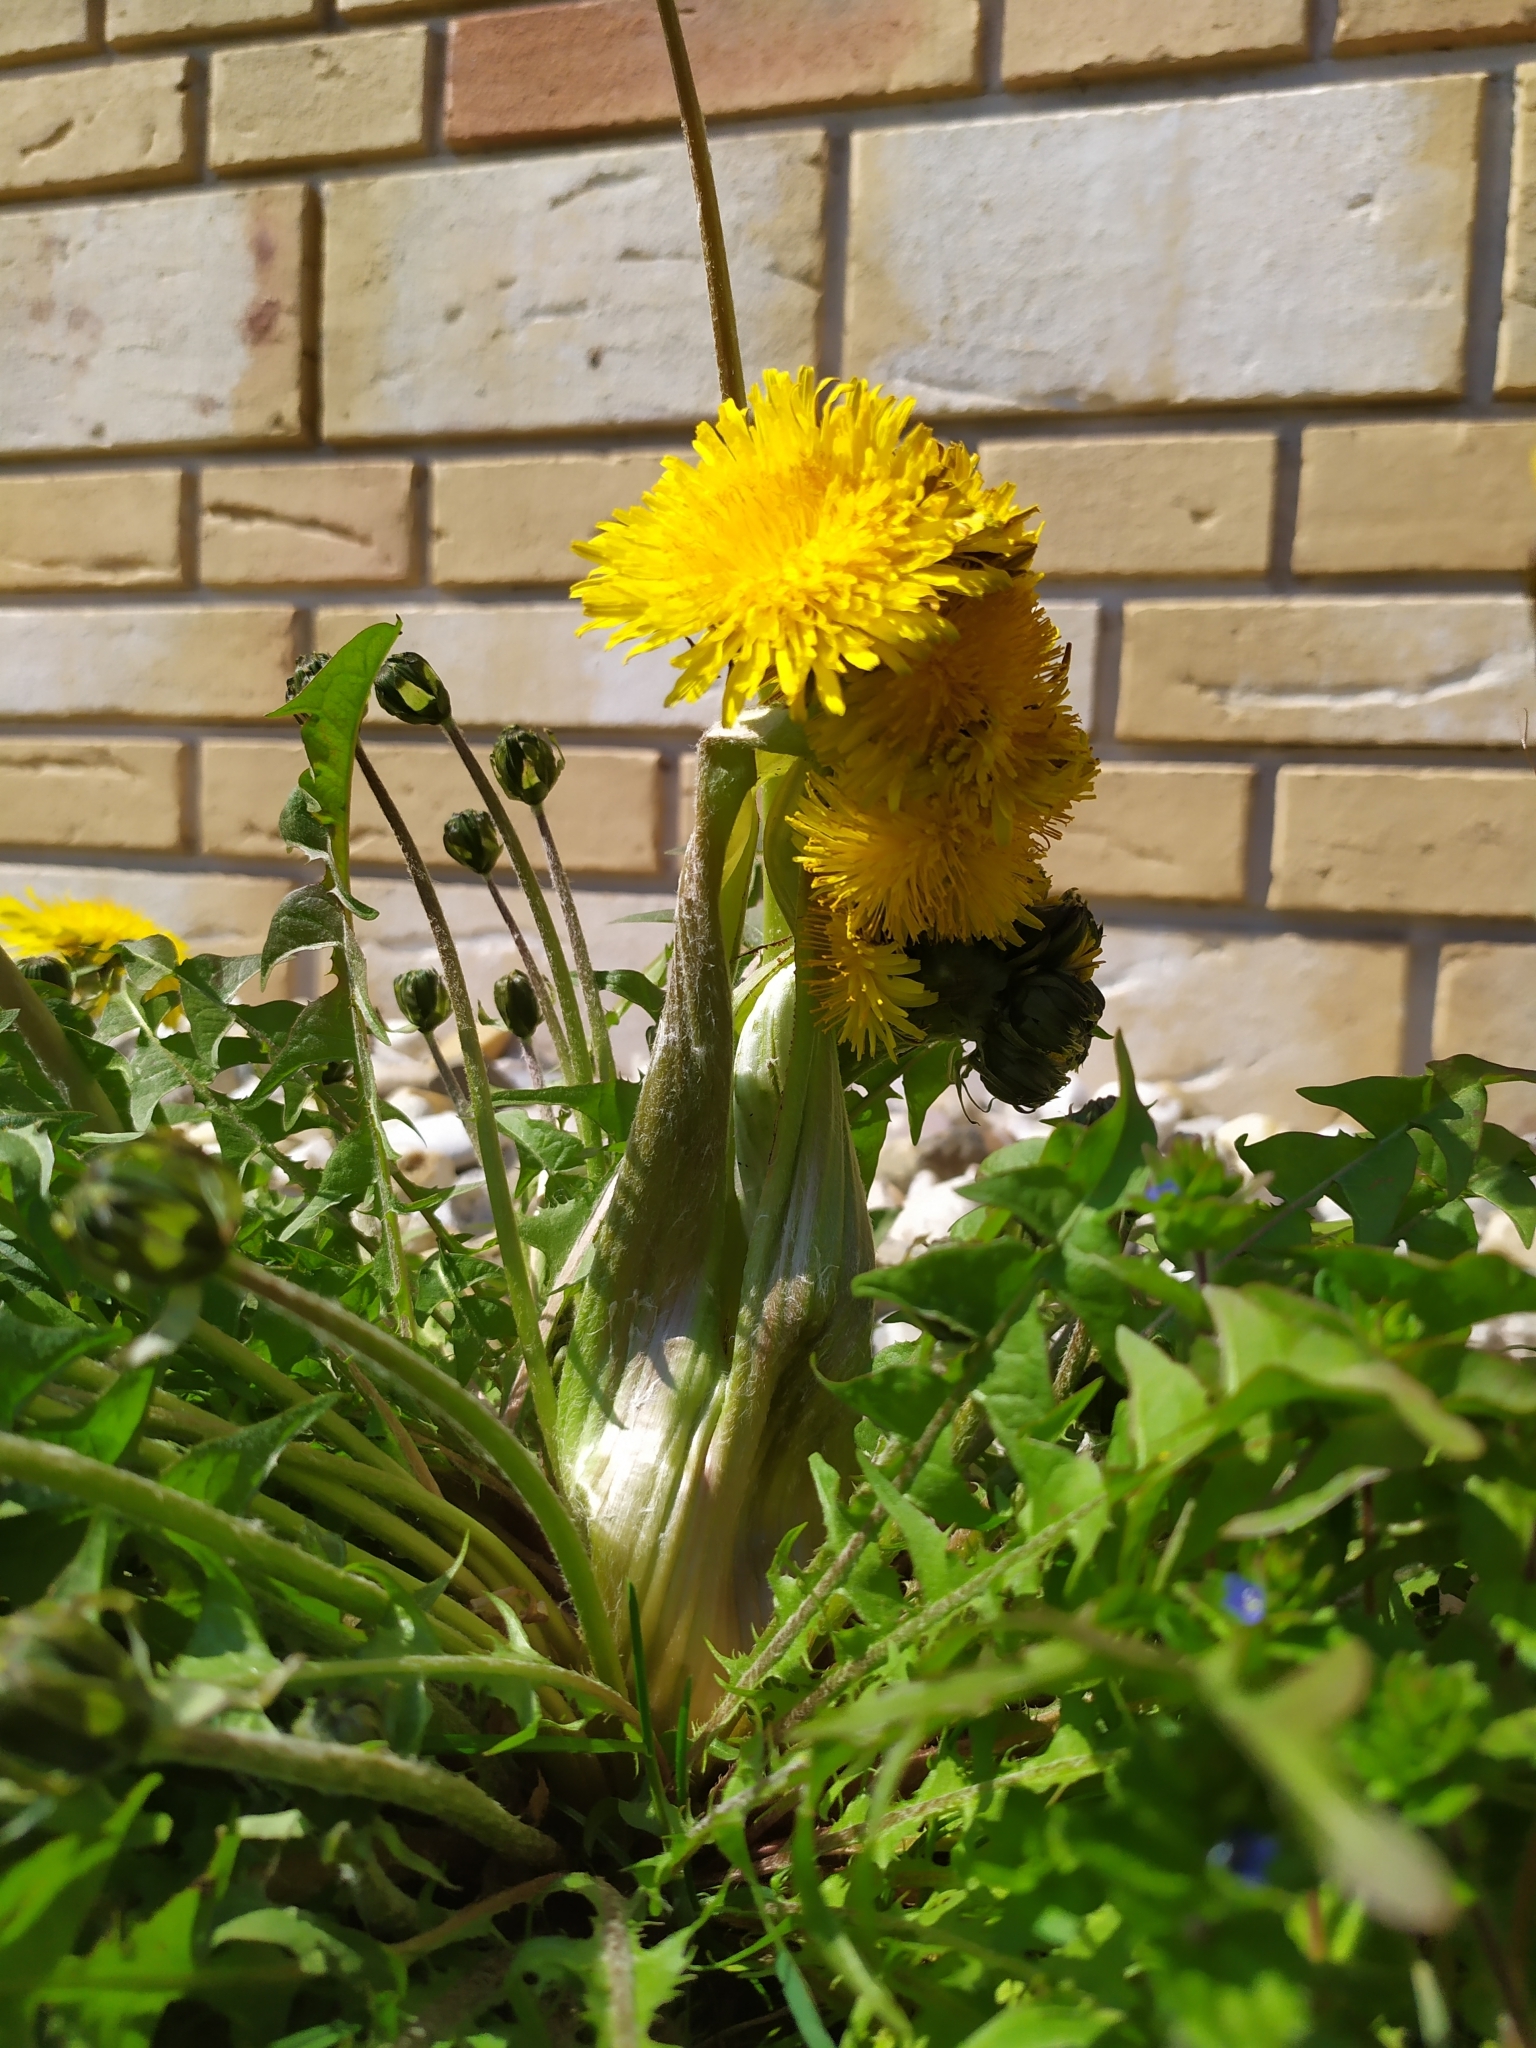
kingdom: Plantae
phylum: Tracheophyta
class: Magnoliopsida
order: Asterales
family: Asteraceae
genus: Taraxacum
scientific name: Taraxacum officinale
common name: Common dandelion
